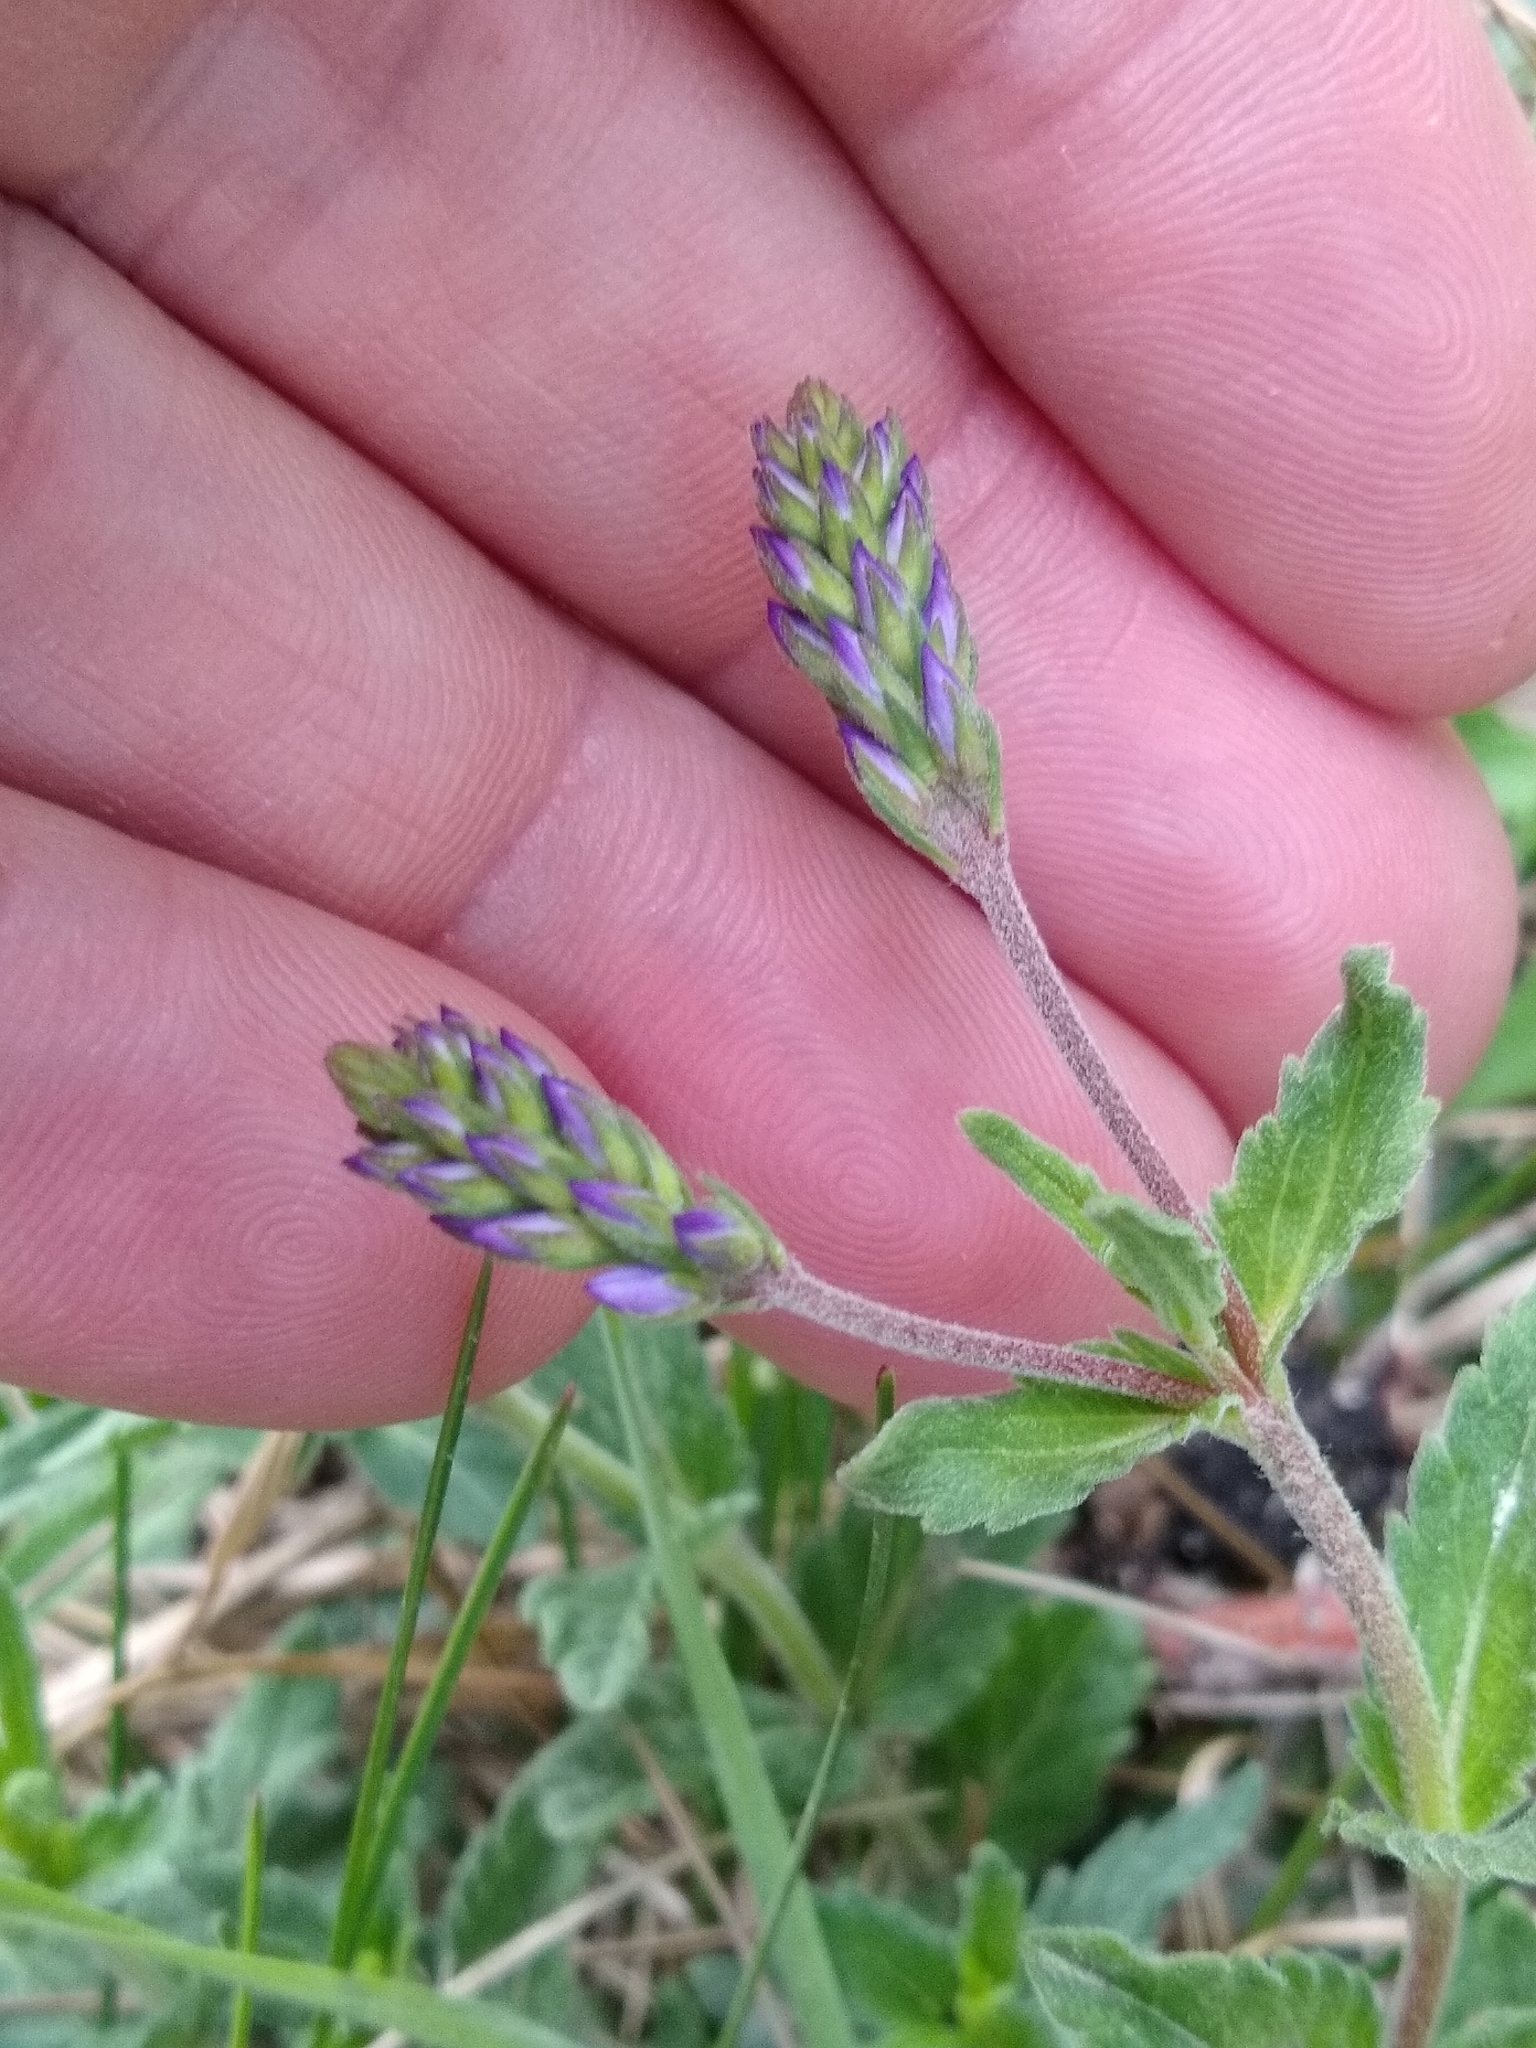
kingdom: Plantae
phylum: Tracheophyta
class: Magnoliopsida
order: Lamiales
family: Plantaginaceae
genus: Veronica
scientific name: Veronica teucrium
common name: Large speedwell
